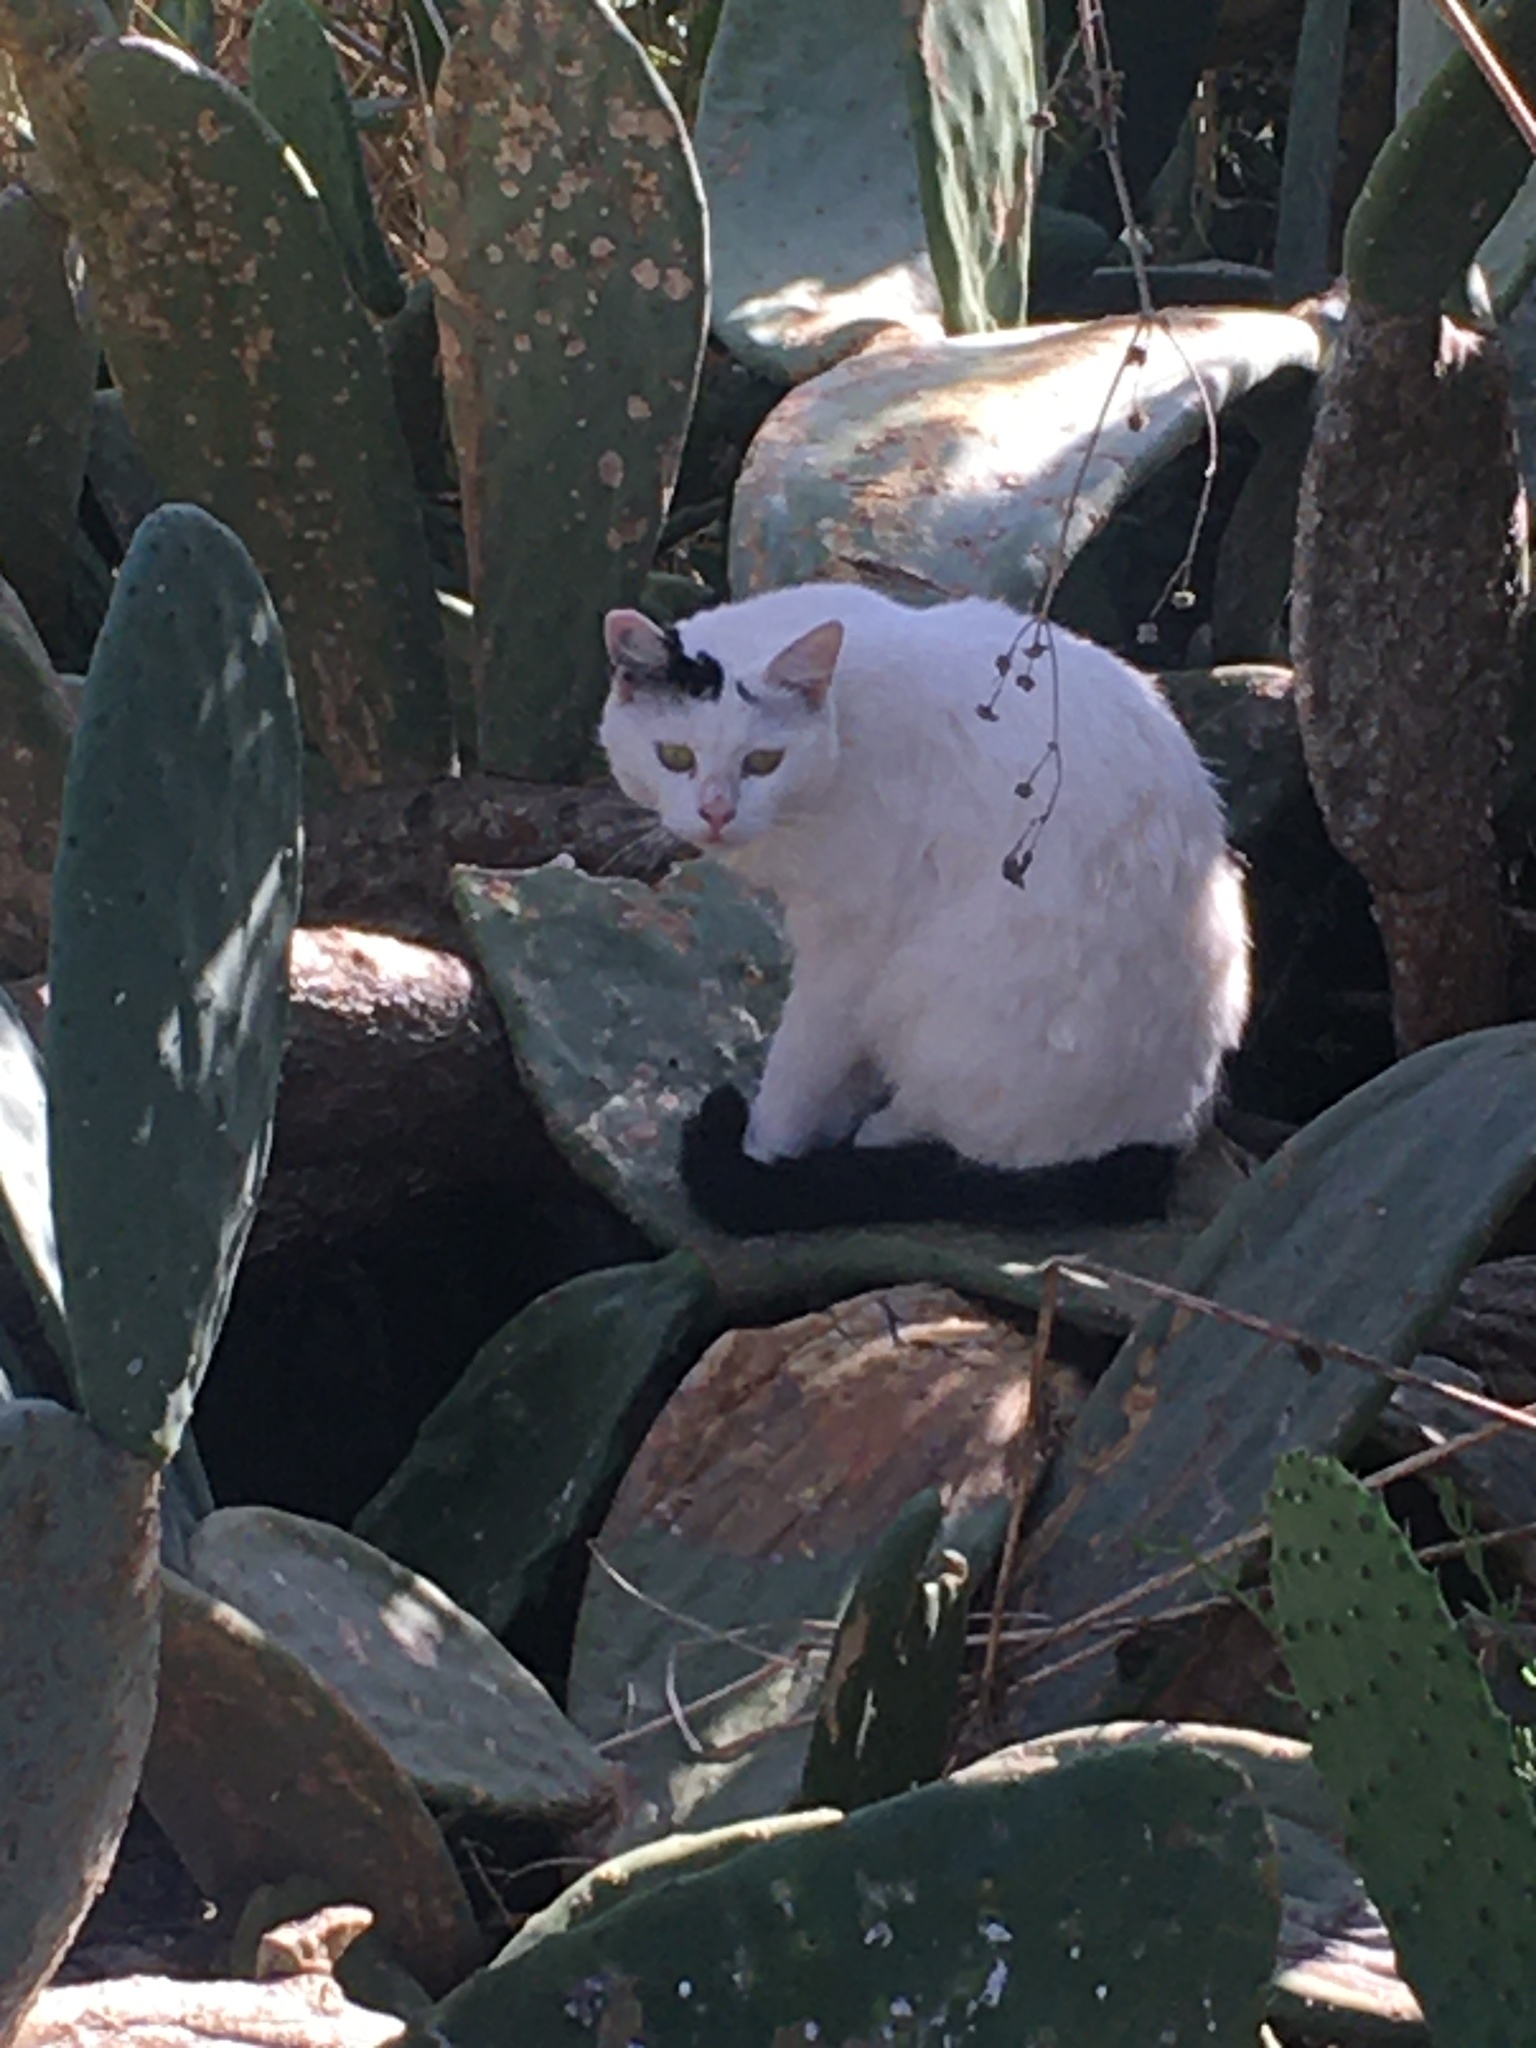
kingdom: Animalia
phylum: Chordata
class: Mammalia
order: Carnivora
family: Felidae
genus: Felis
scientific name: Felis catus
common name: Domestic cat
